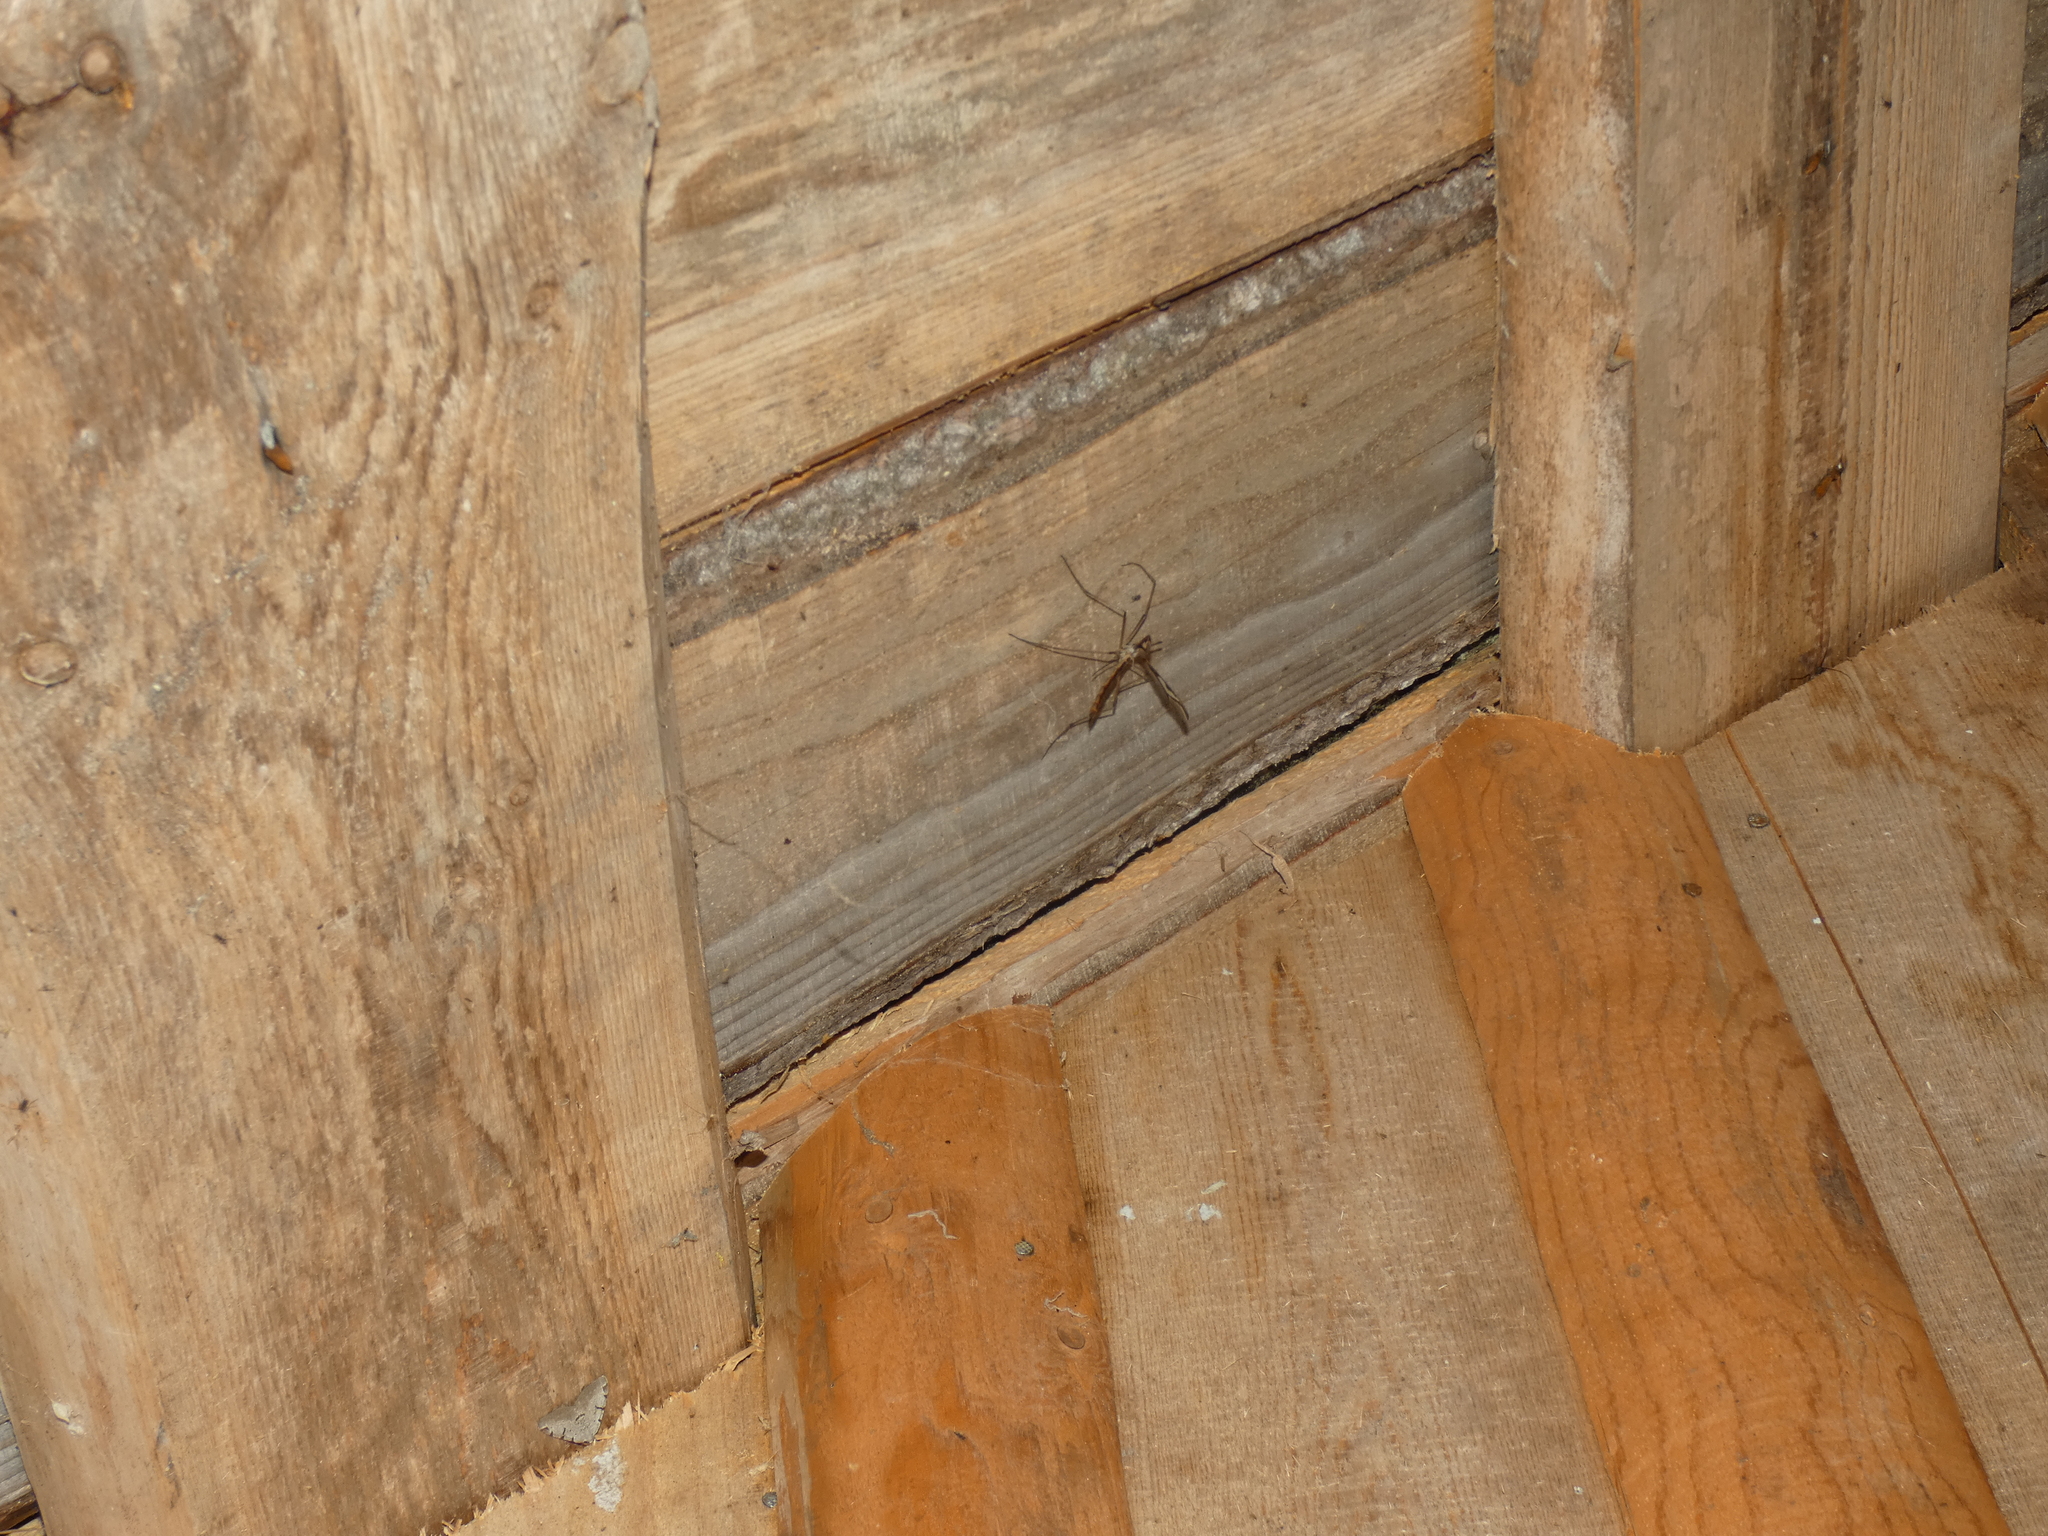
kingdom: Animalia
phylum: Arthropoda
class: Insecta
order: Diptera
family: Pediciidae
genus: Pedicia
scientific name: Pedicia rivosa
